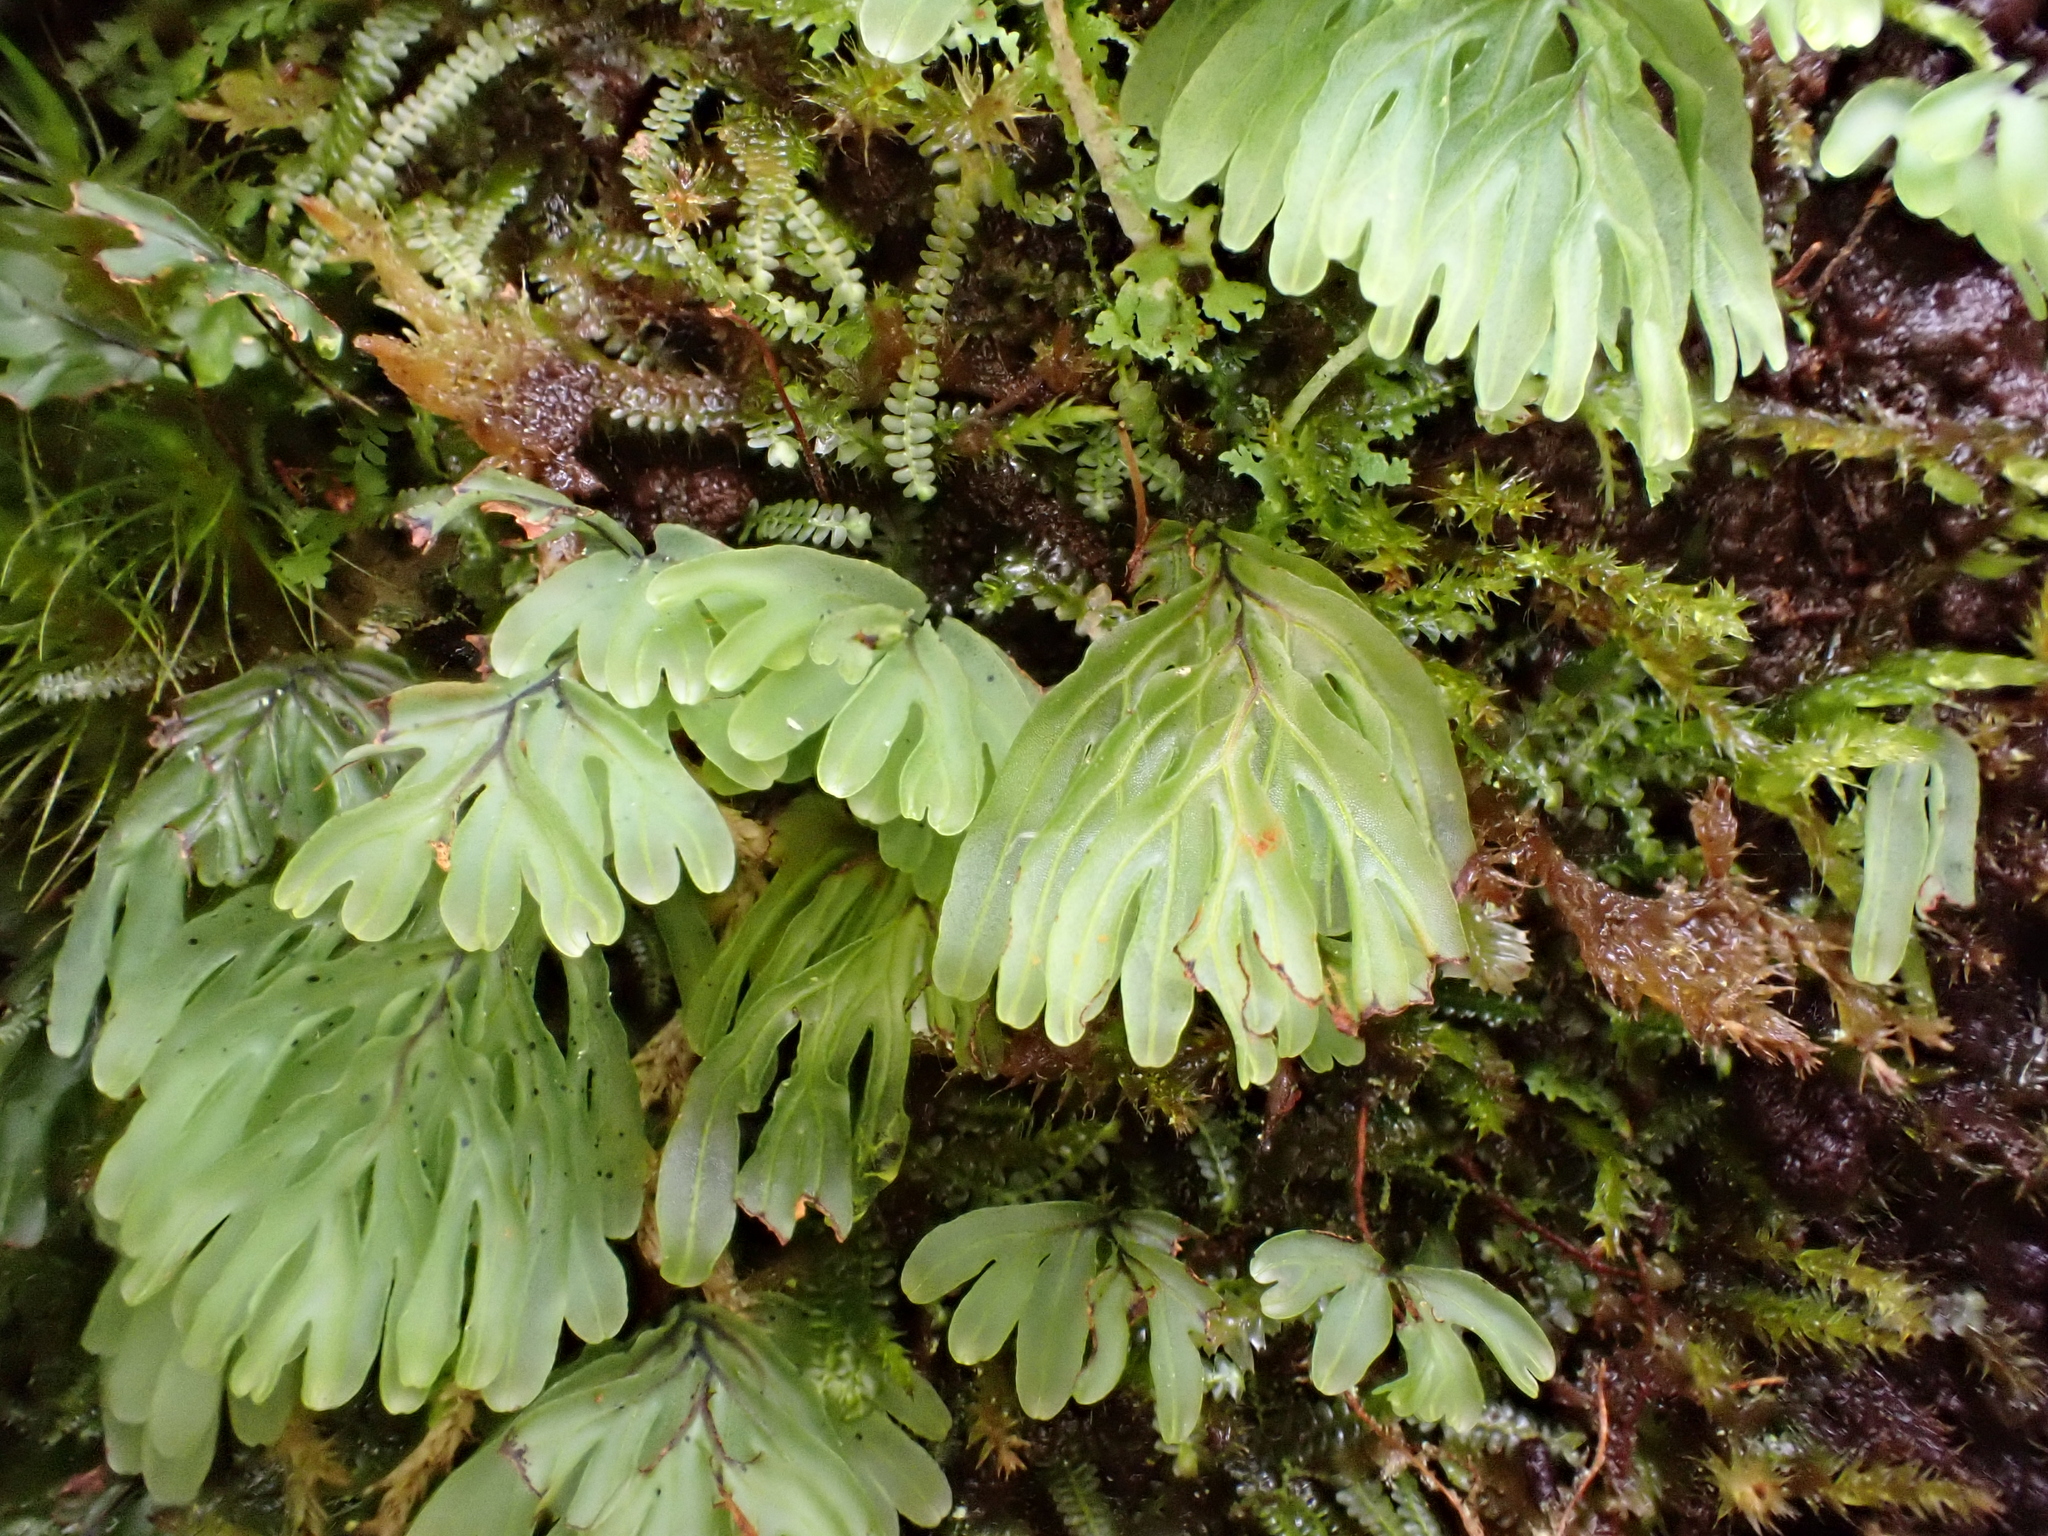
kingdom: Plantae
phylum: Tracheophyta
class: Polypodiopsida
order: Hymenophyllales
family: Hymenophyllaceae
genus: Hymenophyllum
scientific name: Hymenophyllum rarum
